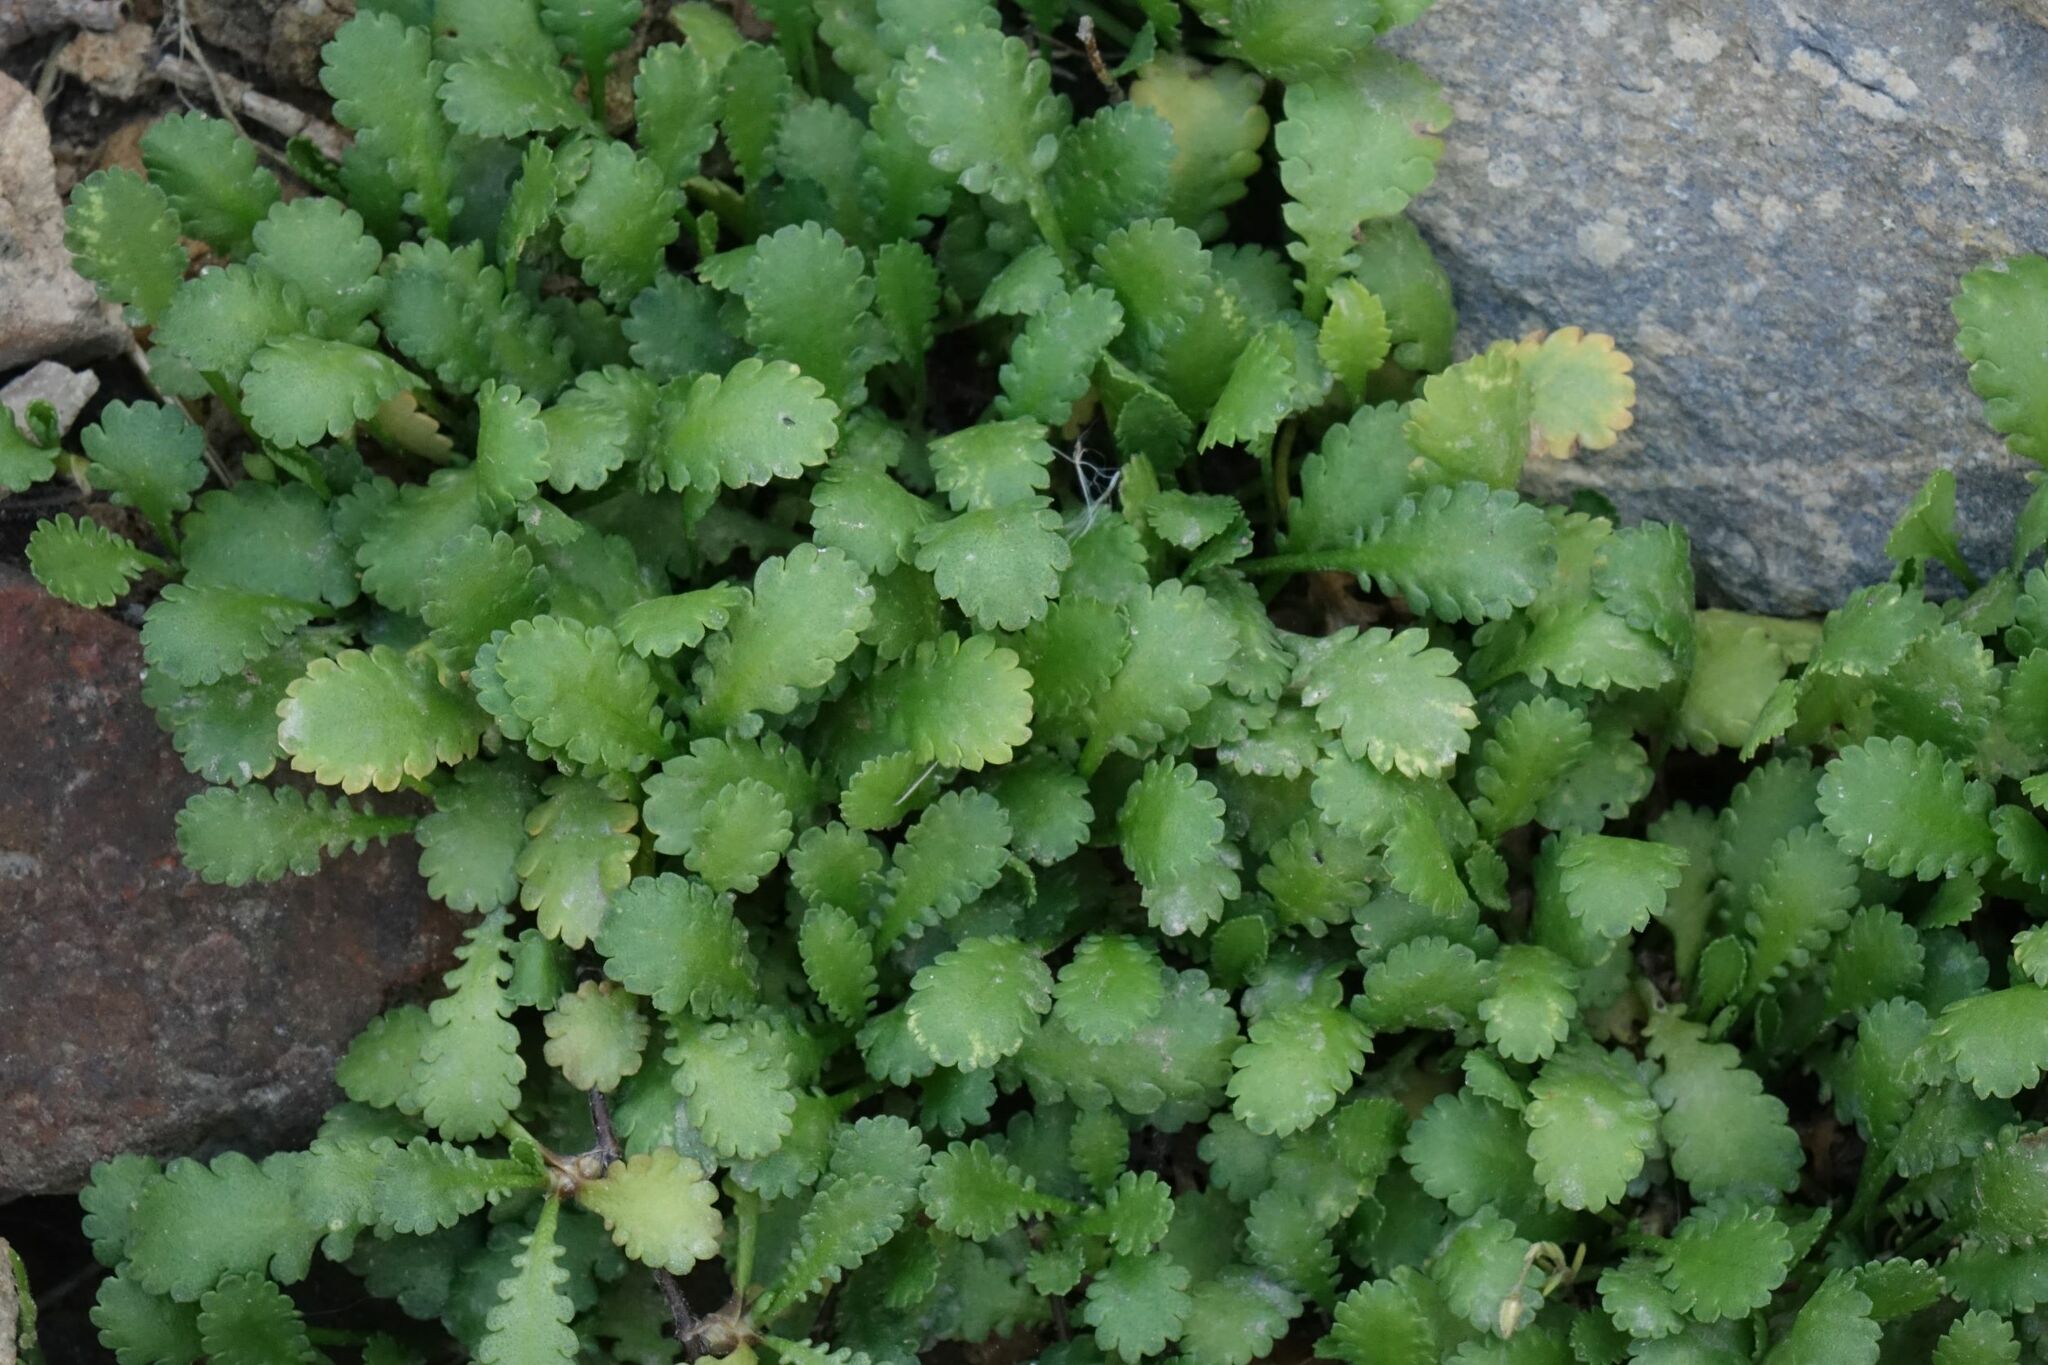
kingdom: Plantae
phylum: Tracheophyta
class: Magnoliopsida
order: Asterales
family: Asteraceae
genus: Leptinella
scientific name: Leptinella dioica
